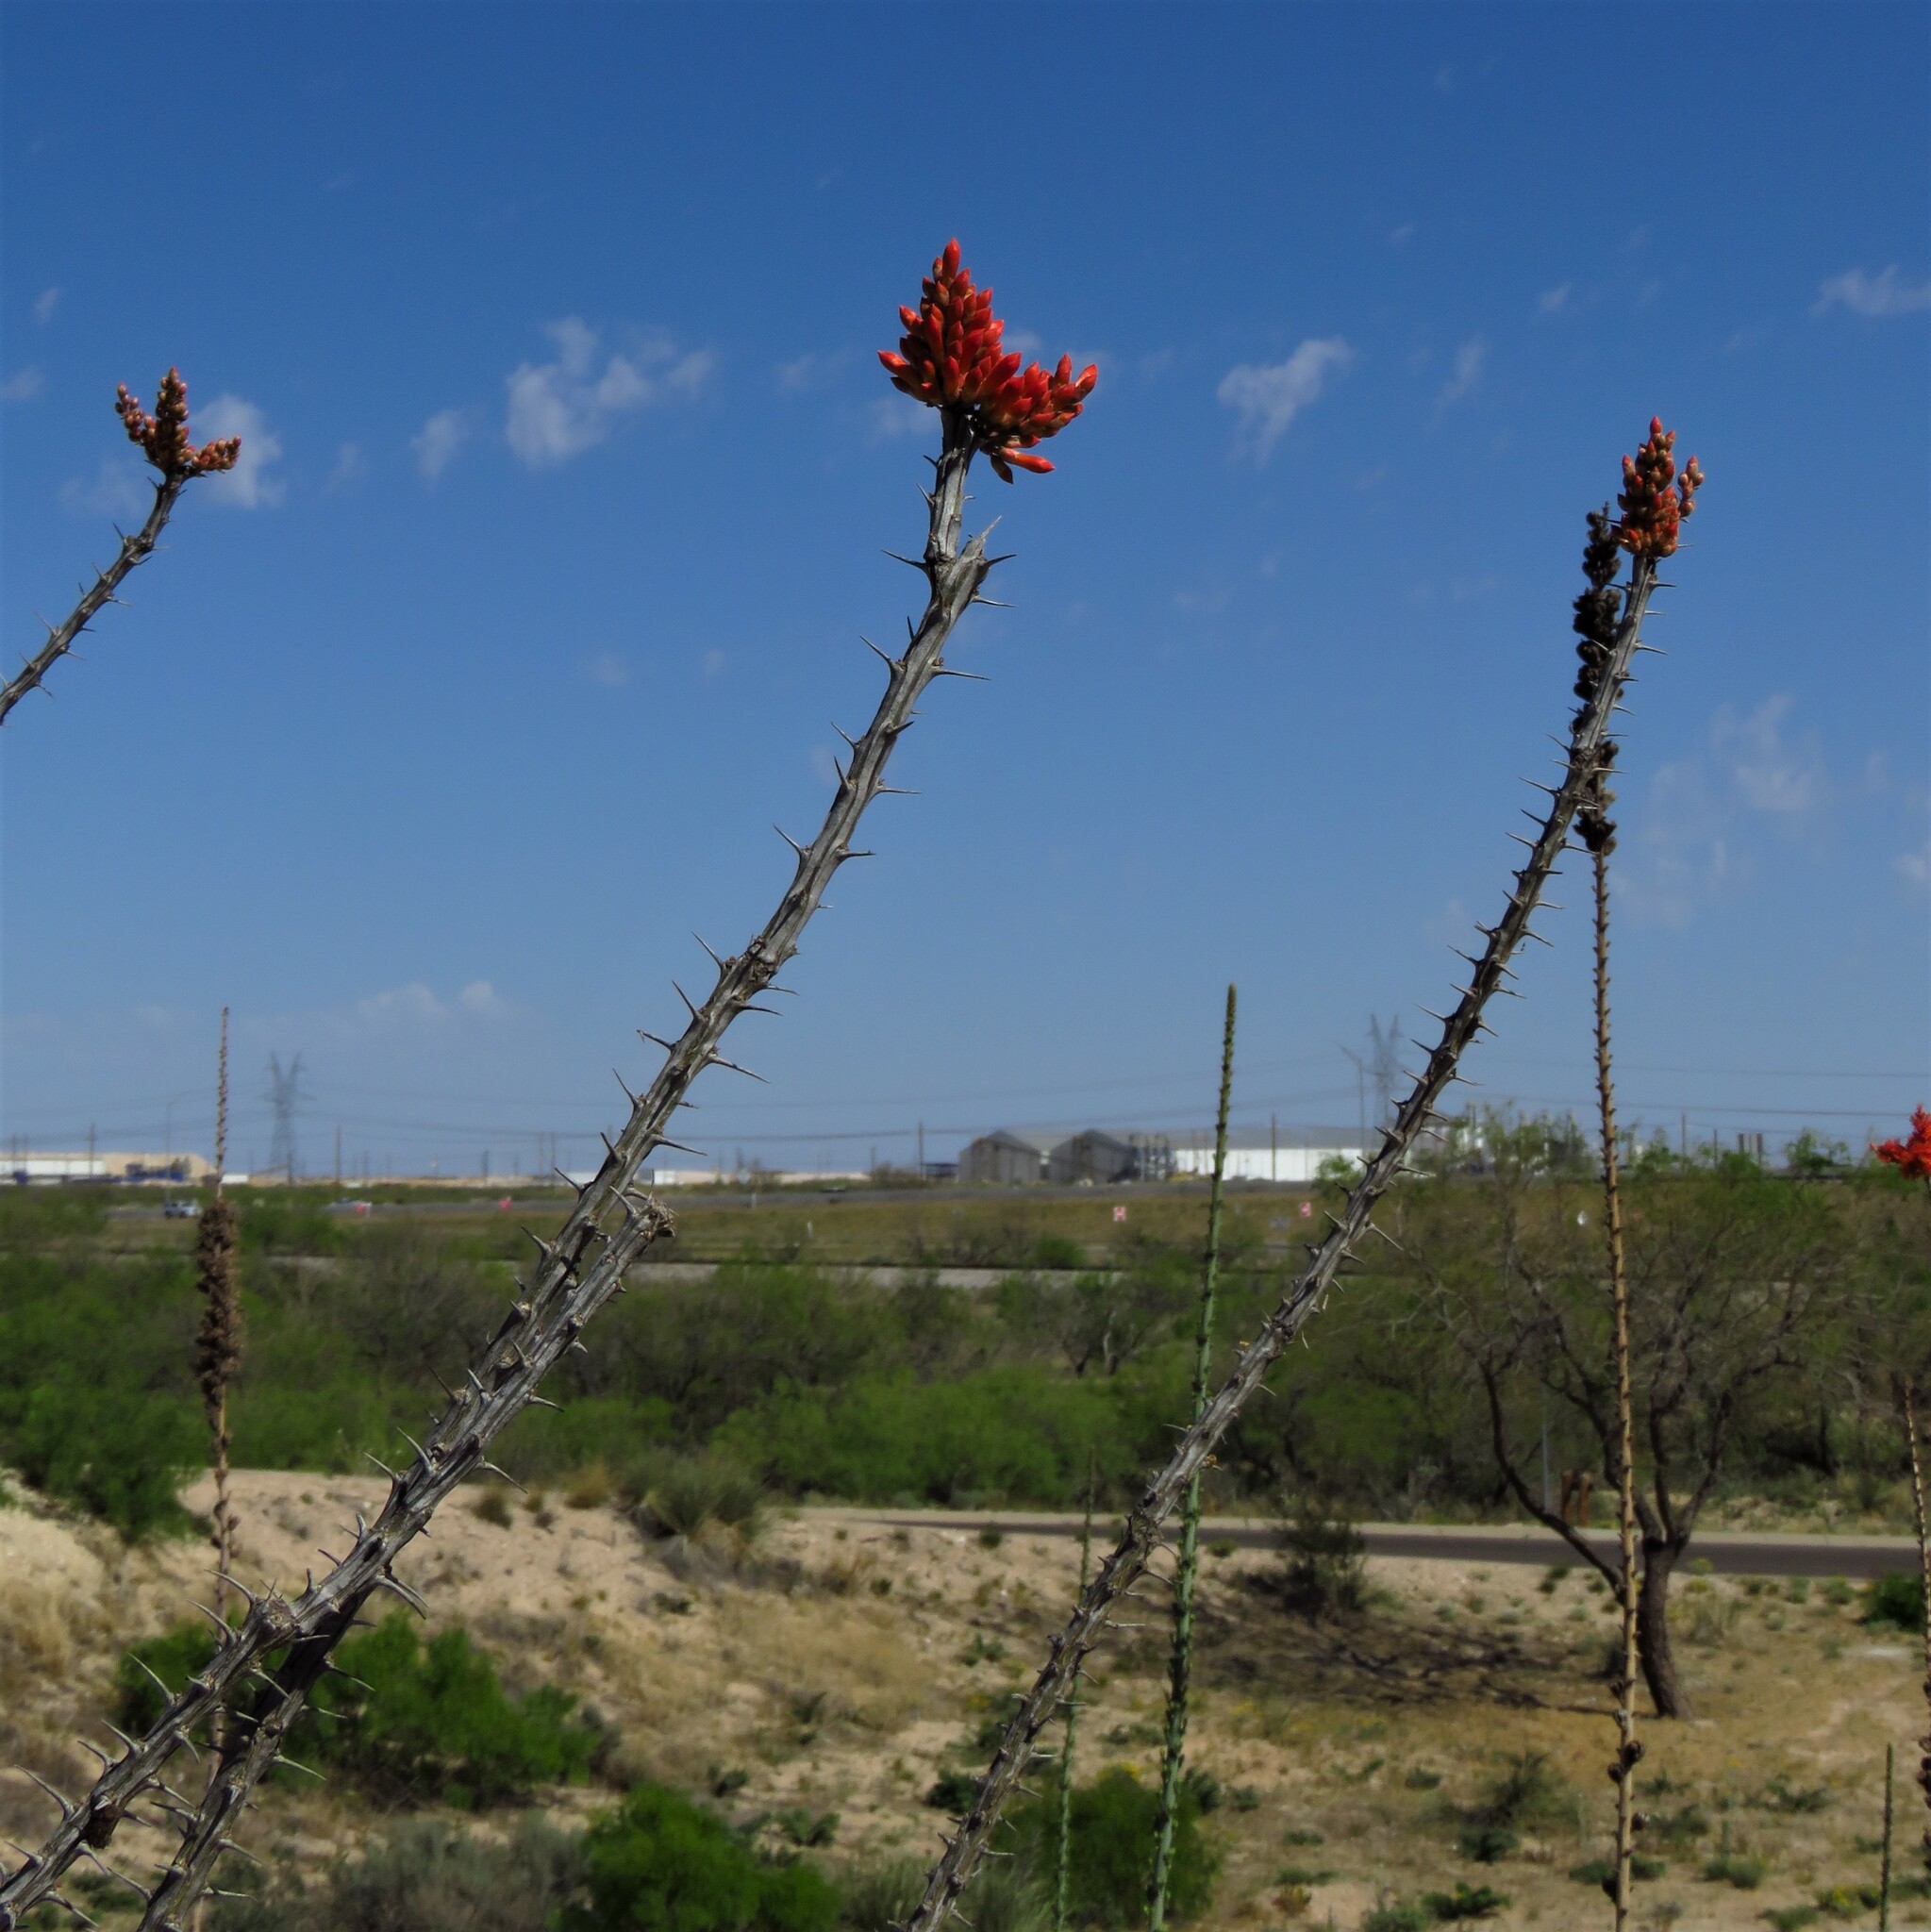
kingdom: Plantae
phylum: Tracheophyta
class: Magnoliopsida
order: Ericales
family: Fouquieriaceae
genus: Fouquieria
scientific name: Fouquieria splendens
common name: Vine-cactus
